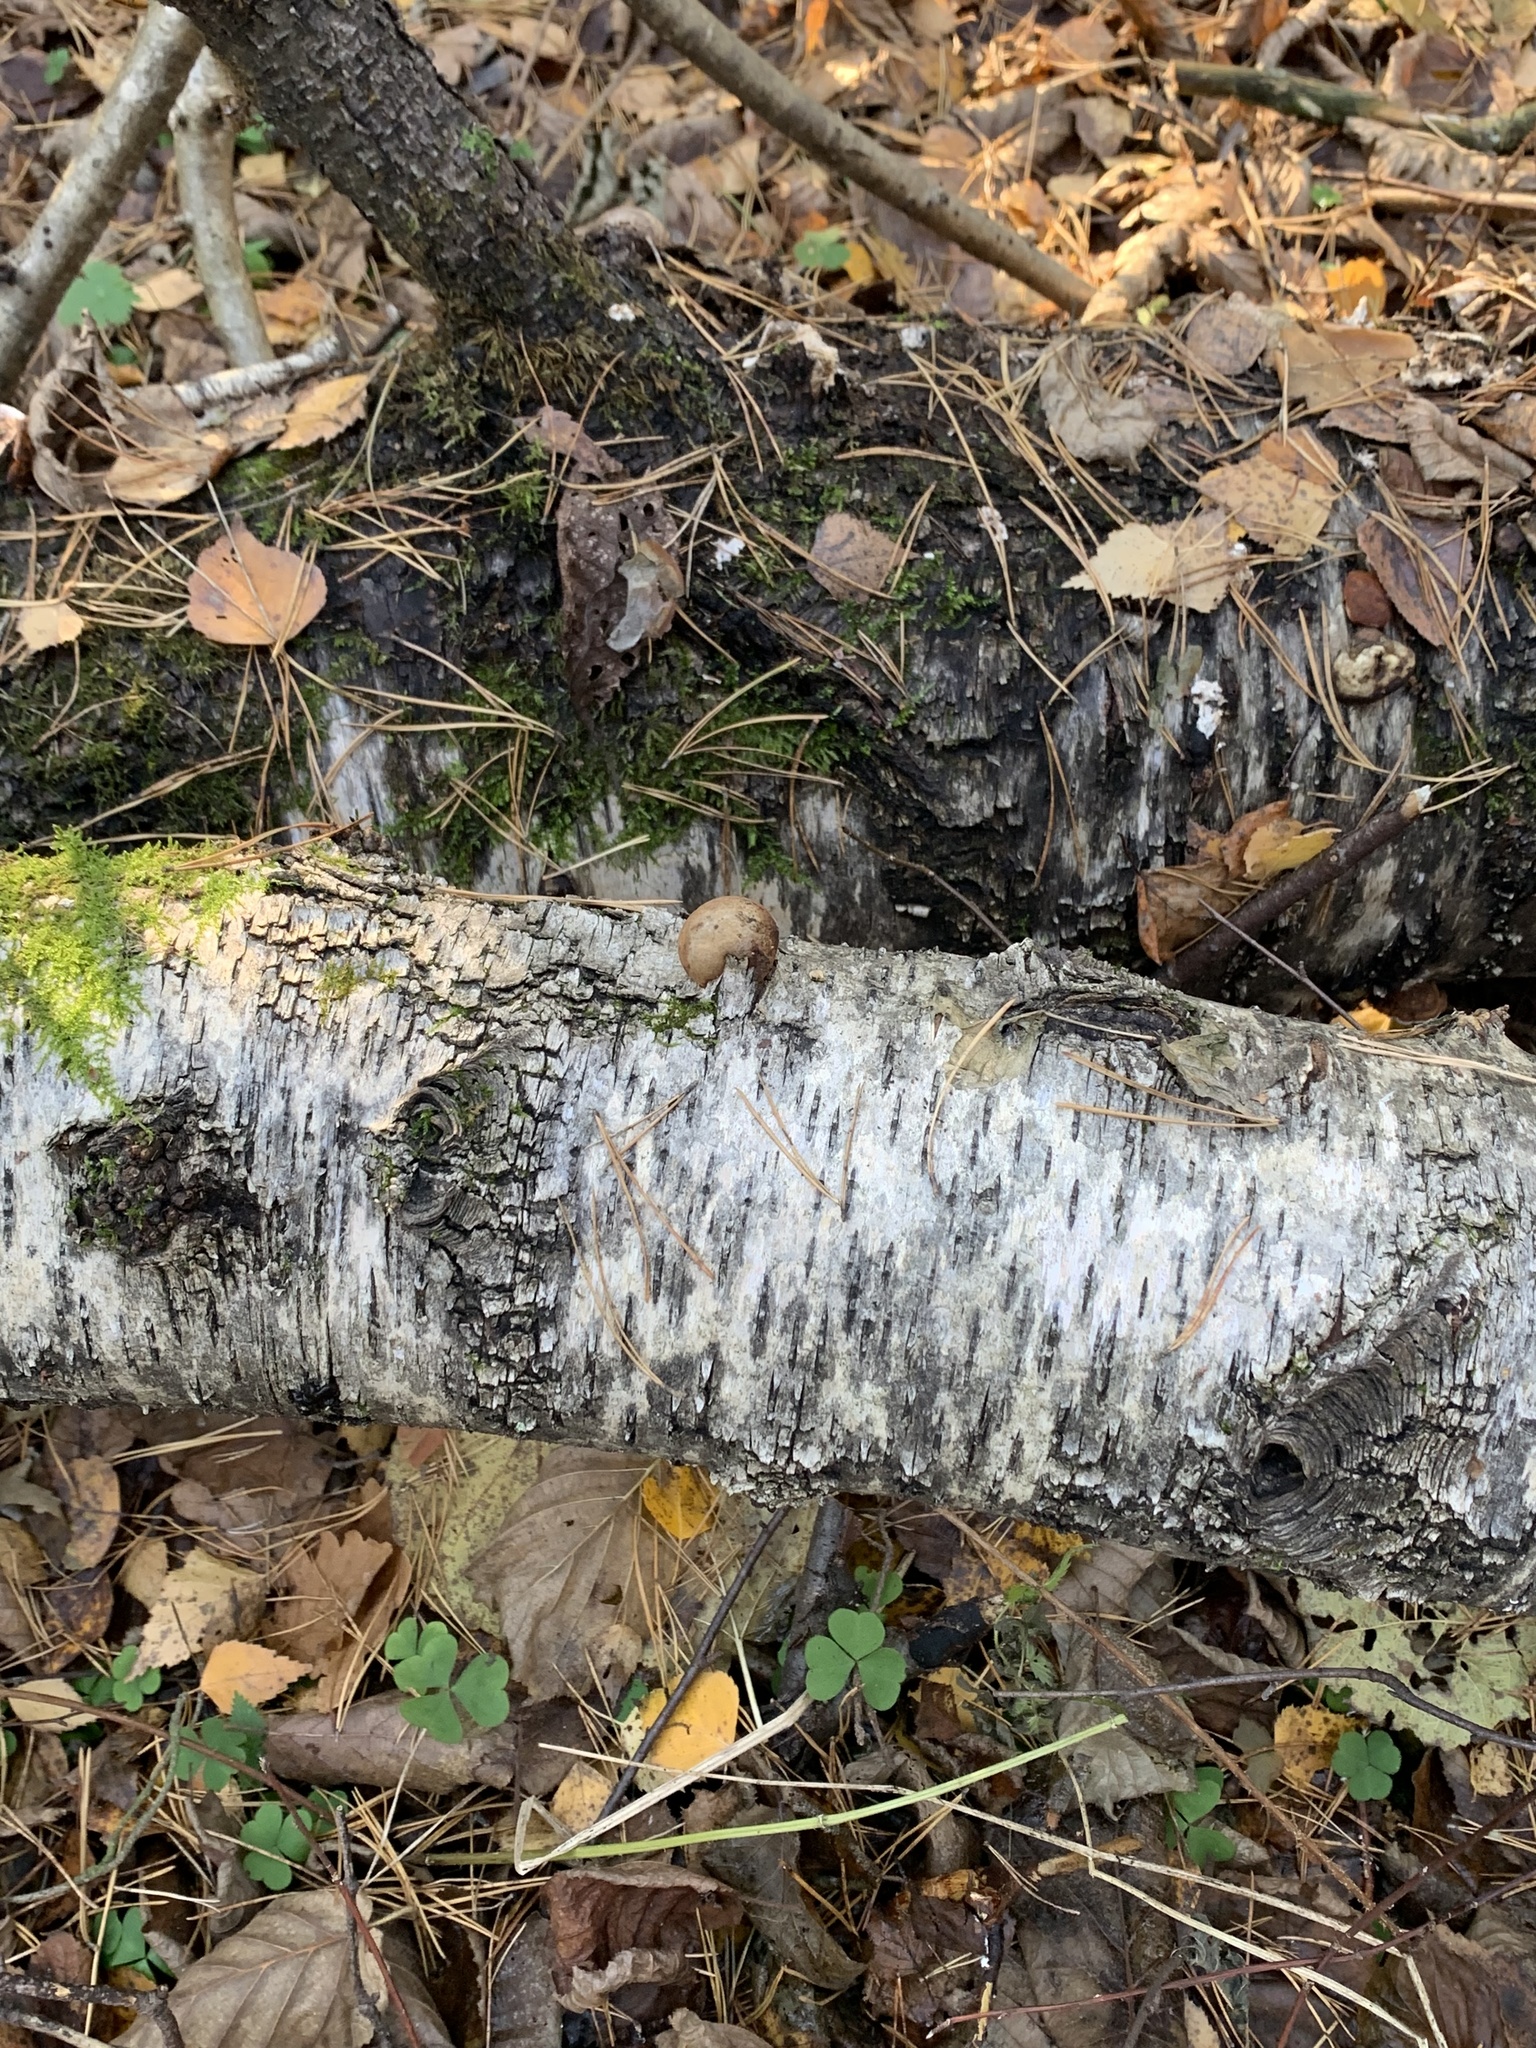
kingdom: Fungi
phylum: Basidiomycota
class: Agaricomycetes
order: Polyporales
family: Fomitopsidaceae
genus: Fomitopsis
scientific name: Fomitopsis betulina
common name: Birch polypore
